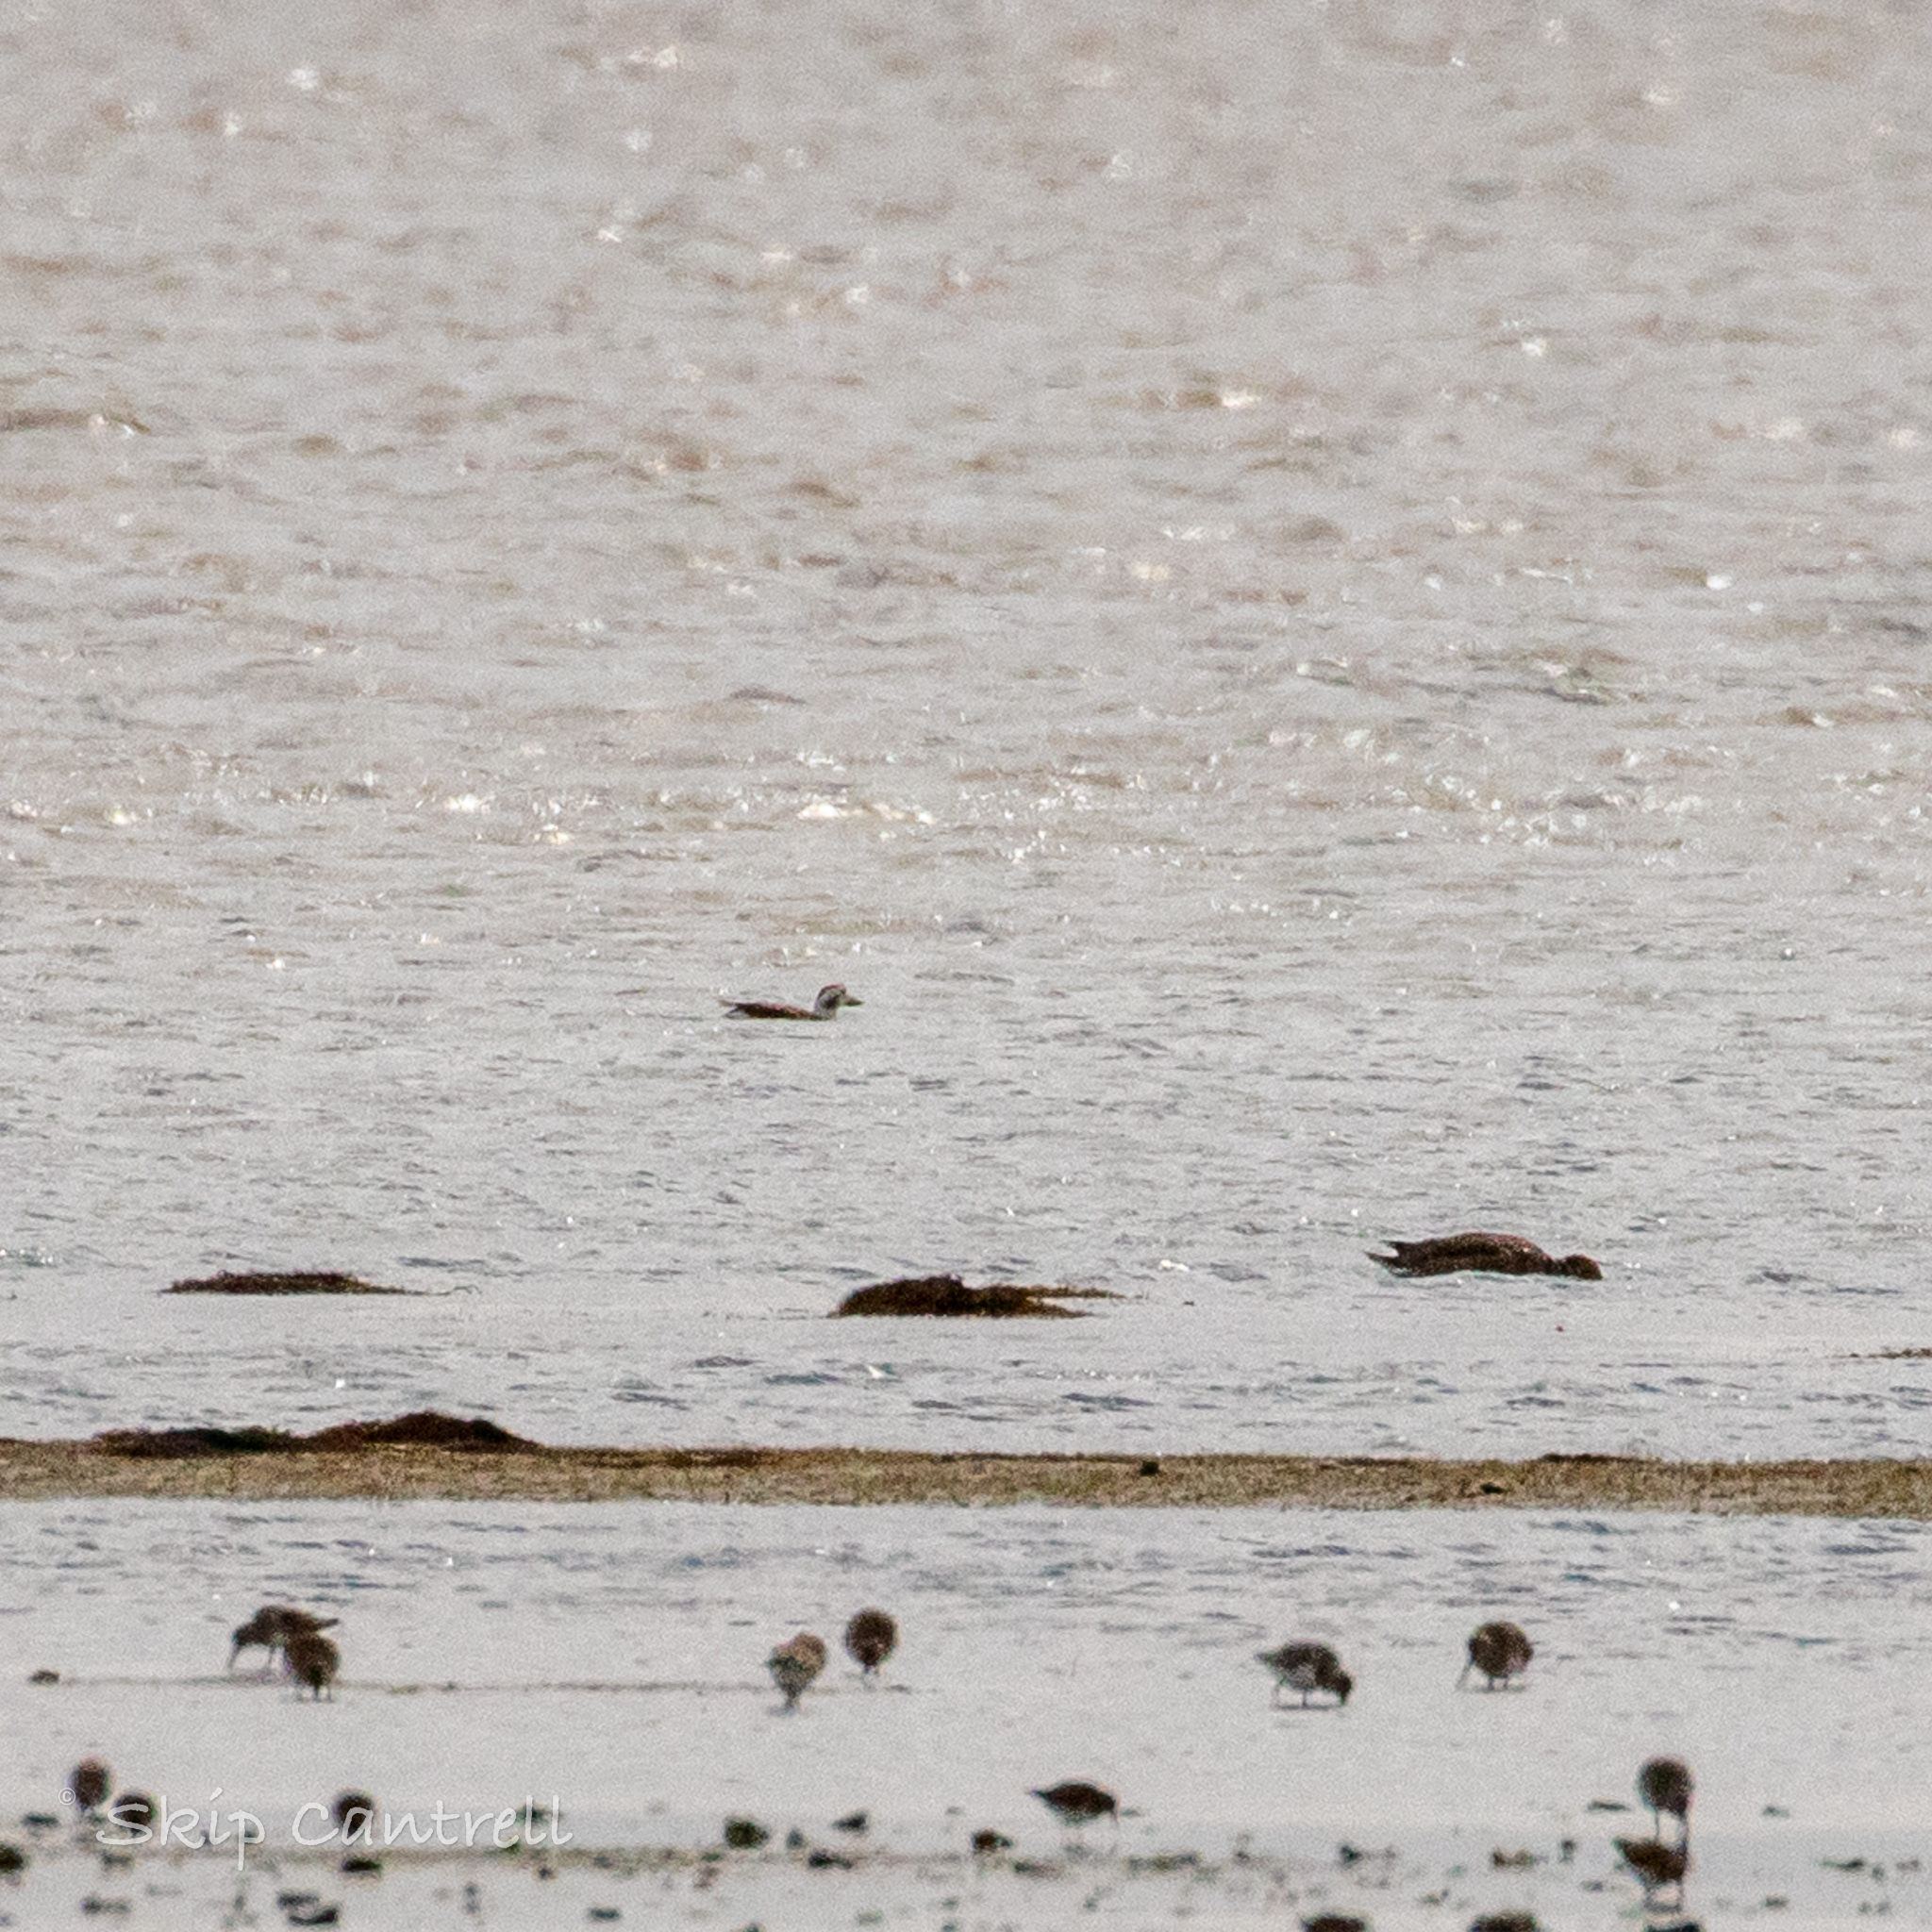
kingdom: Animalia
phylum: Chordata
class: Aves
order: Anseriformes
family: Anatidae
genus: Clangula
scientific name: Clangula hyemalis
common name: Long-tailed duck
